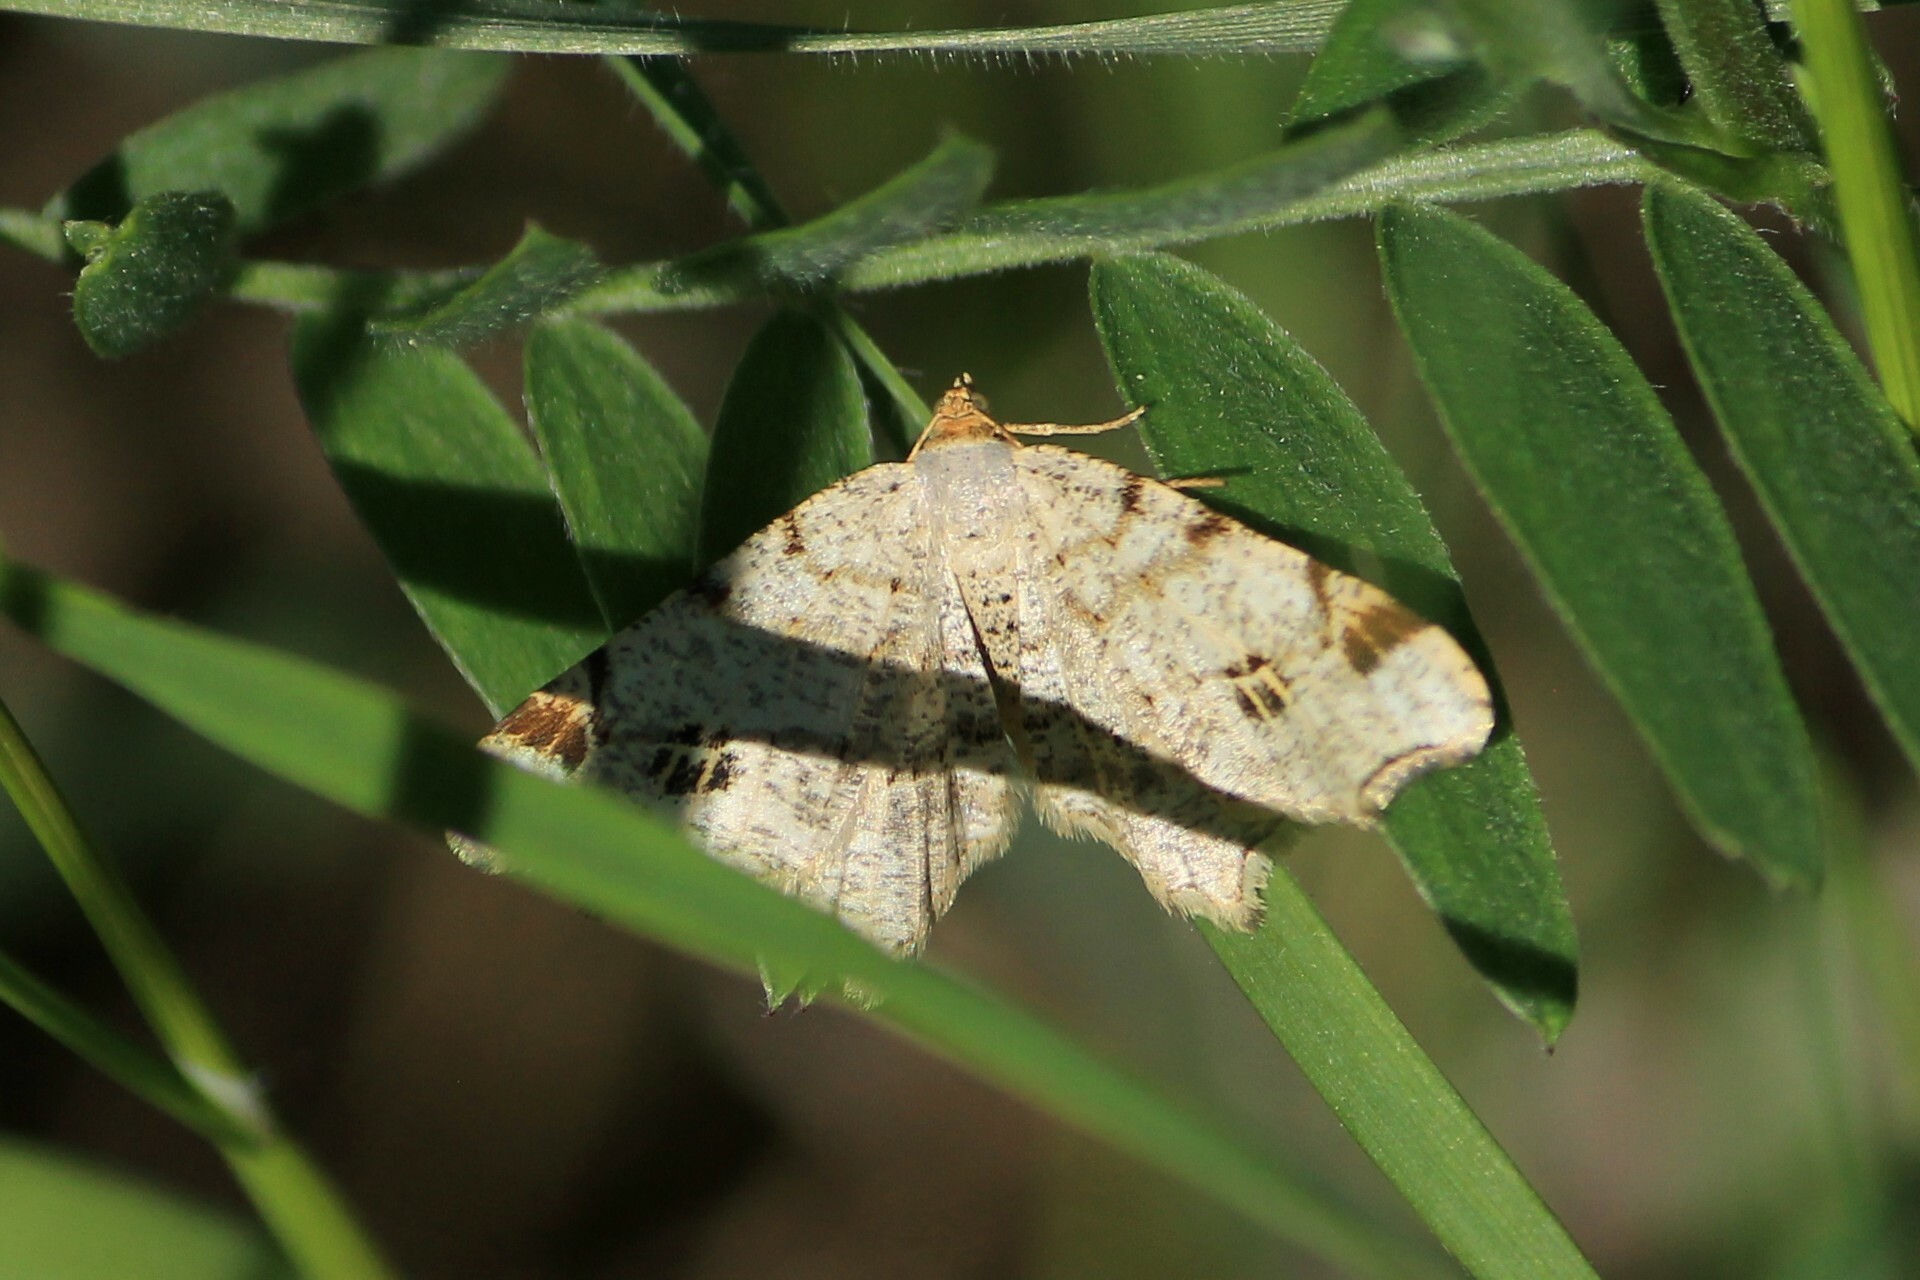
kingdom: Animalia
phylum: Arthropoda
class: Insecta
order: Lepidoptera
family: Geometridae
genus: Macaria
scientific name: Macaria notata
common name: Peacock moth
